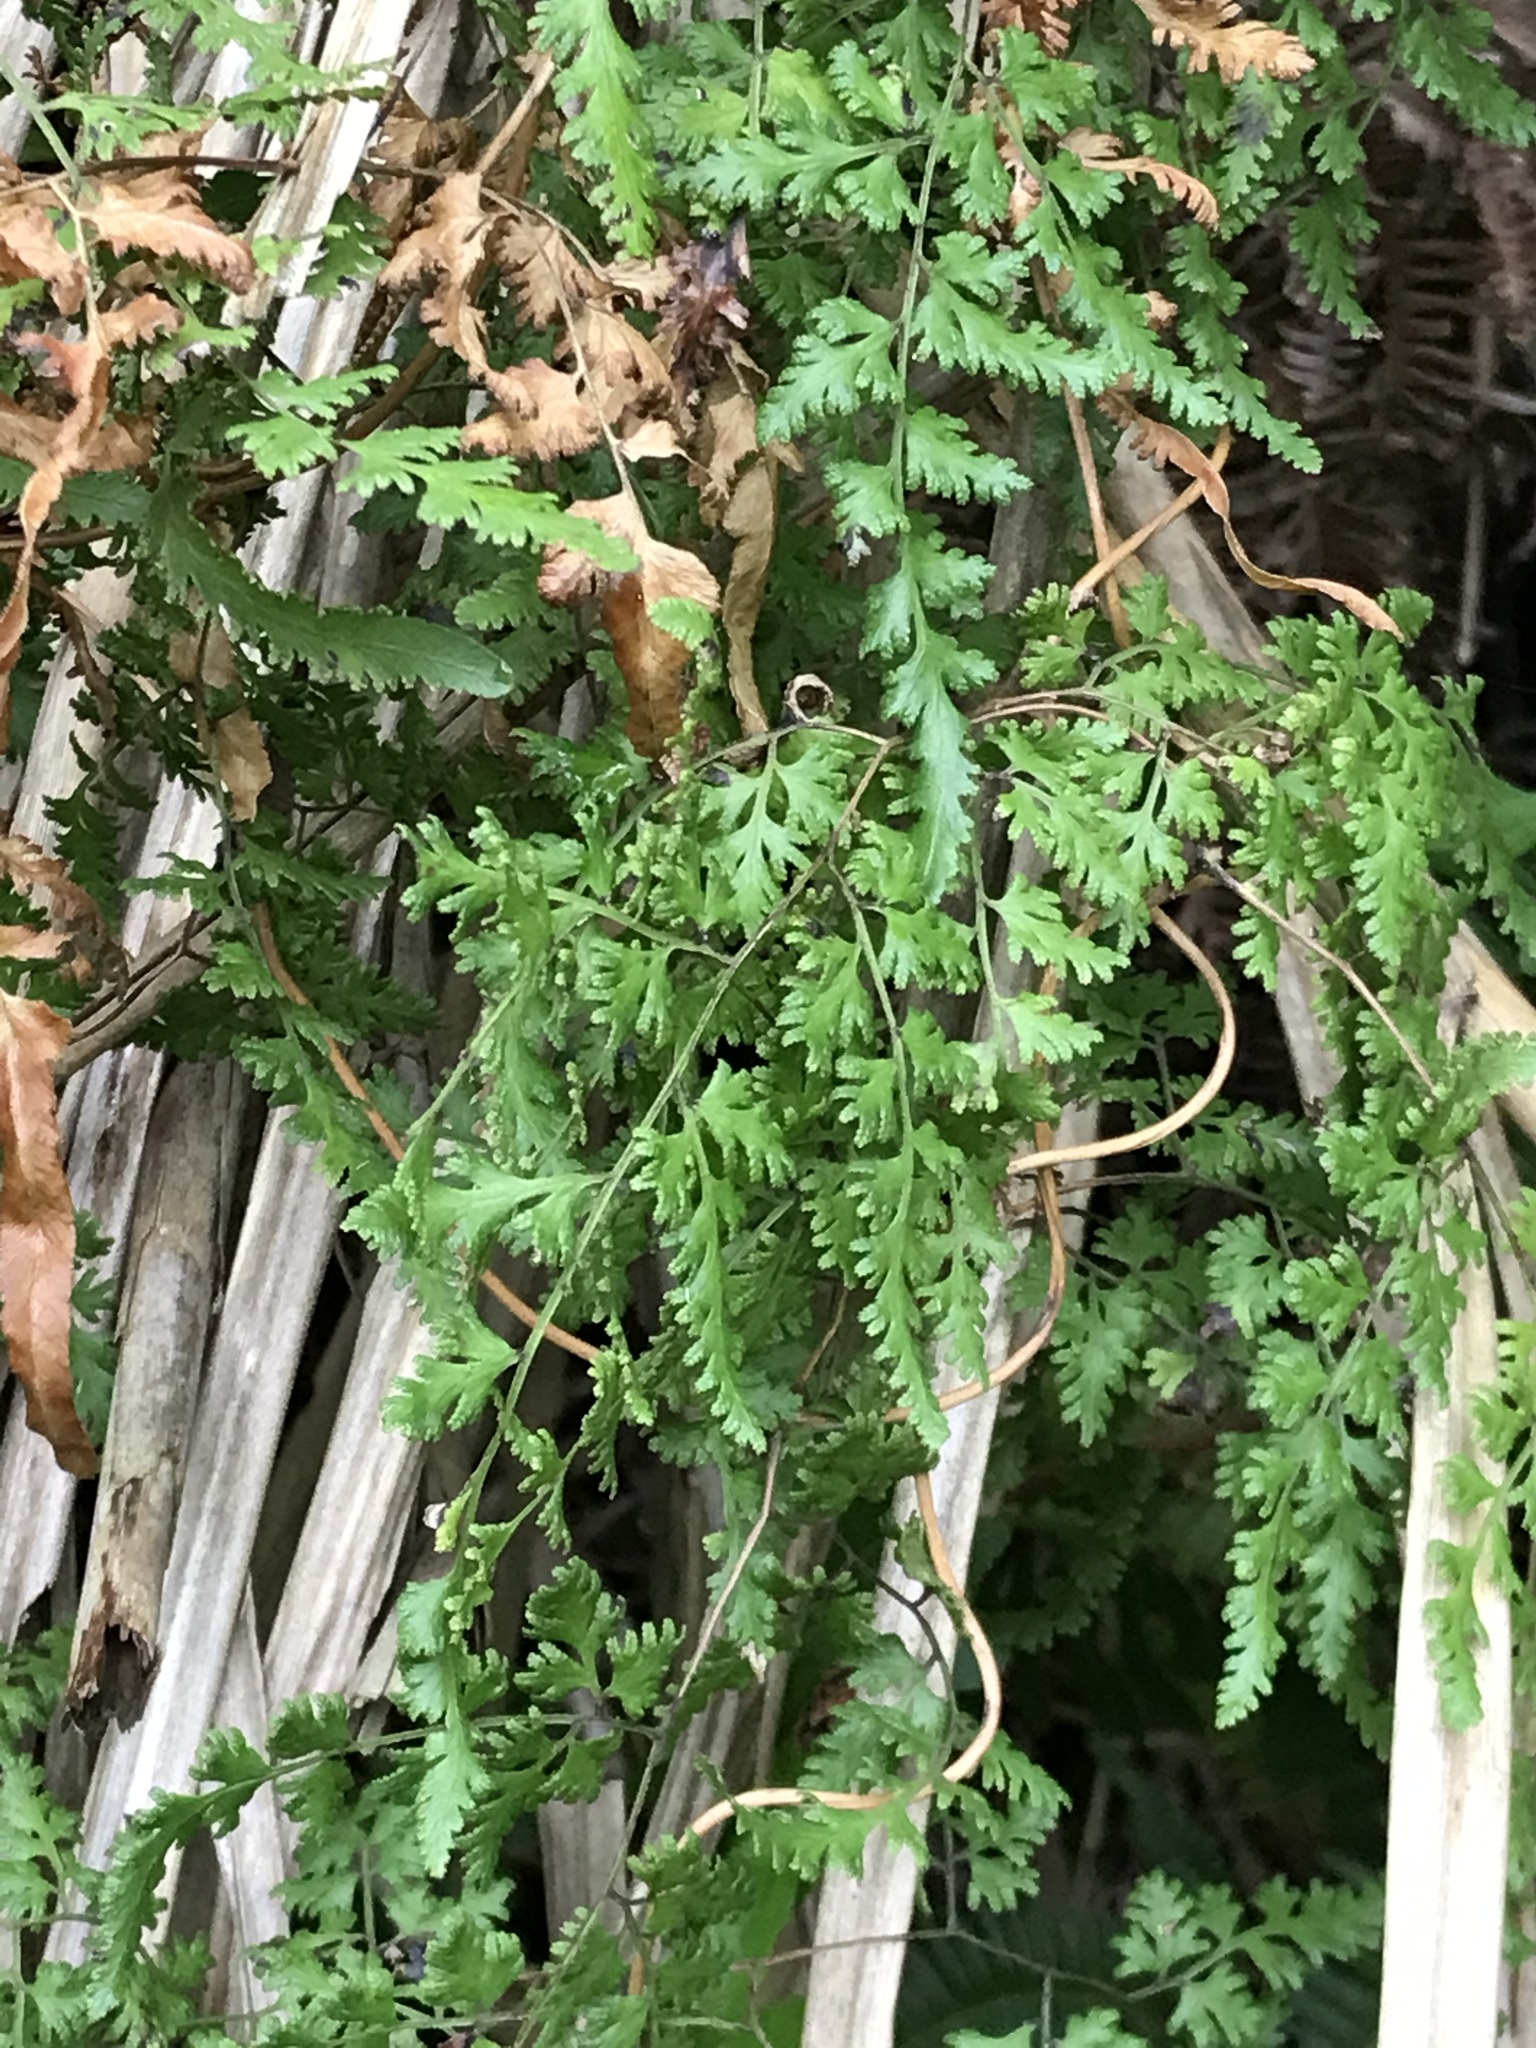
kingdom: Plantae
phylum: Tracheophyta
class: Polypodiopsida
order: Schizaeales
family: Lygodiaceae
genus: Lygodium
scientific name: Lygodium japonicum
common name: Japanese climbing fern
